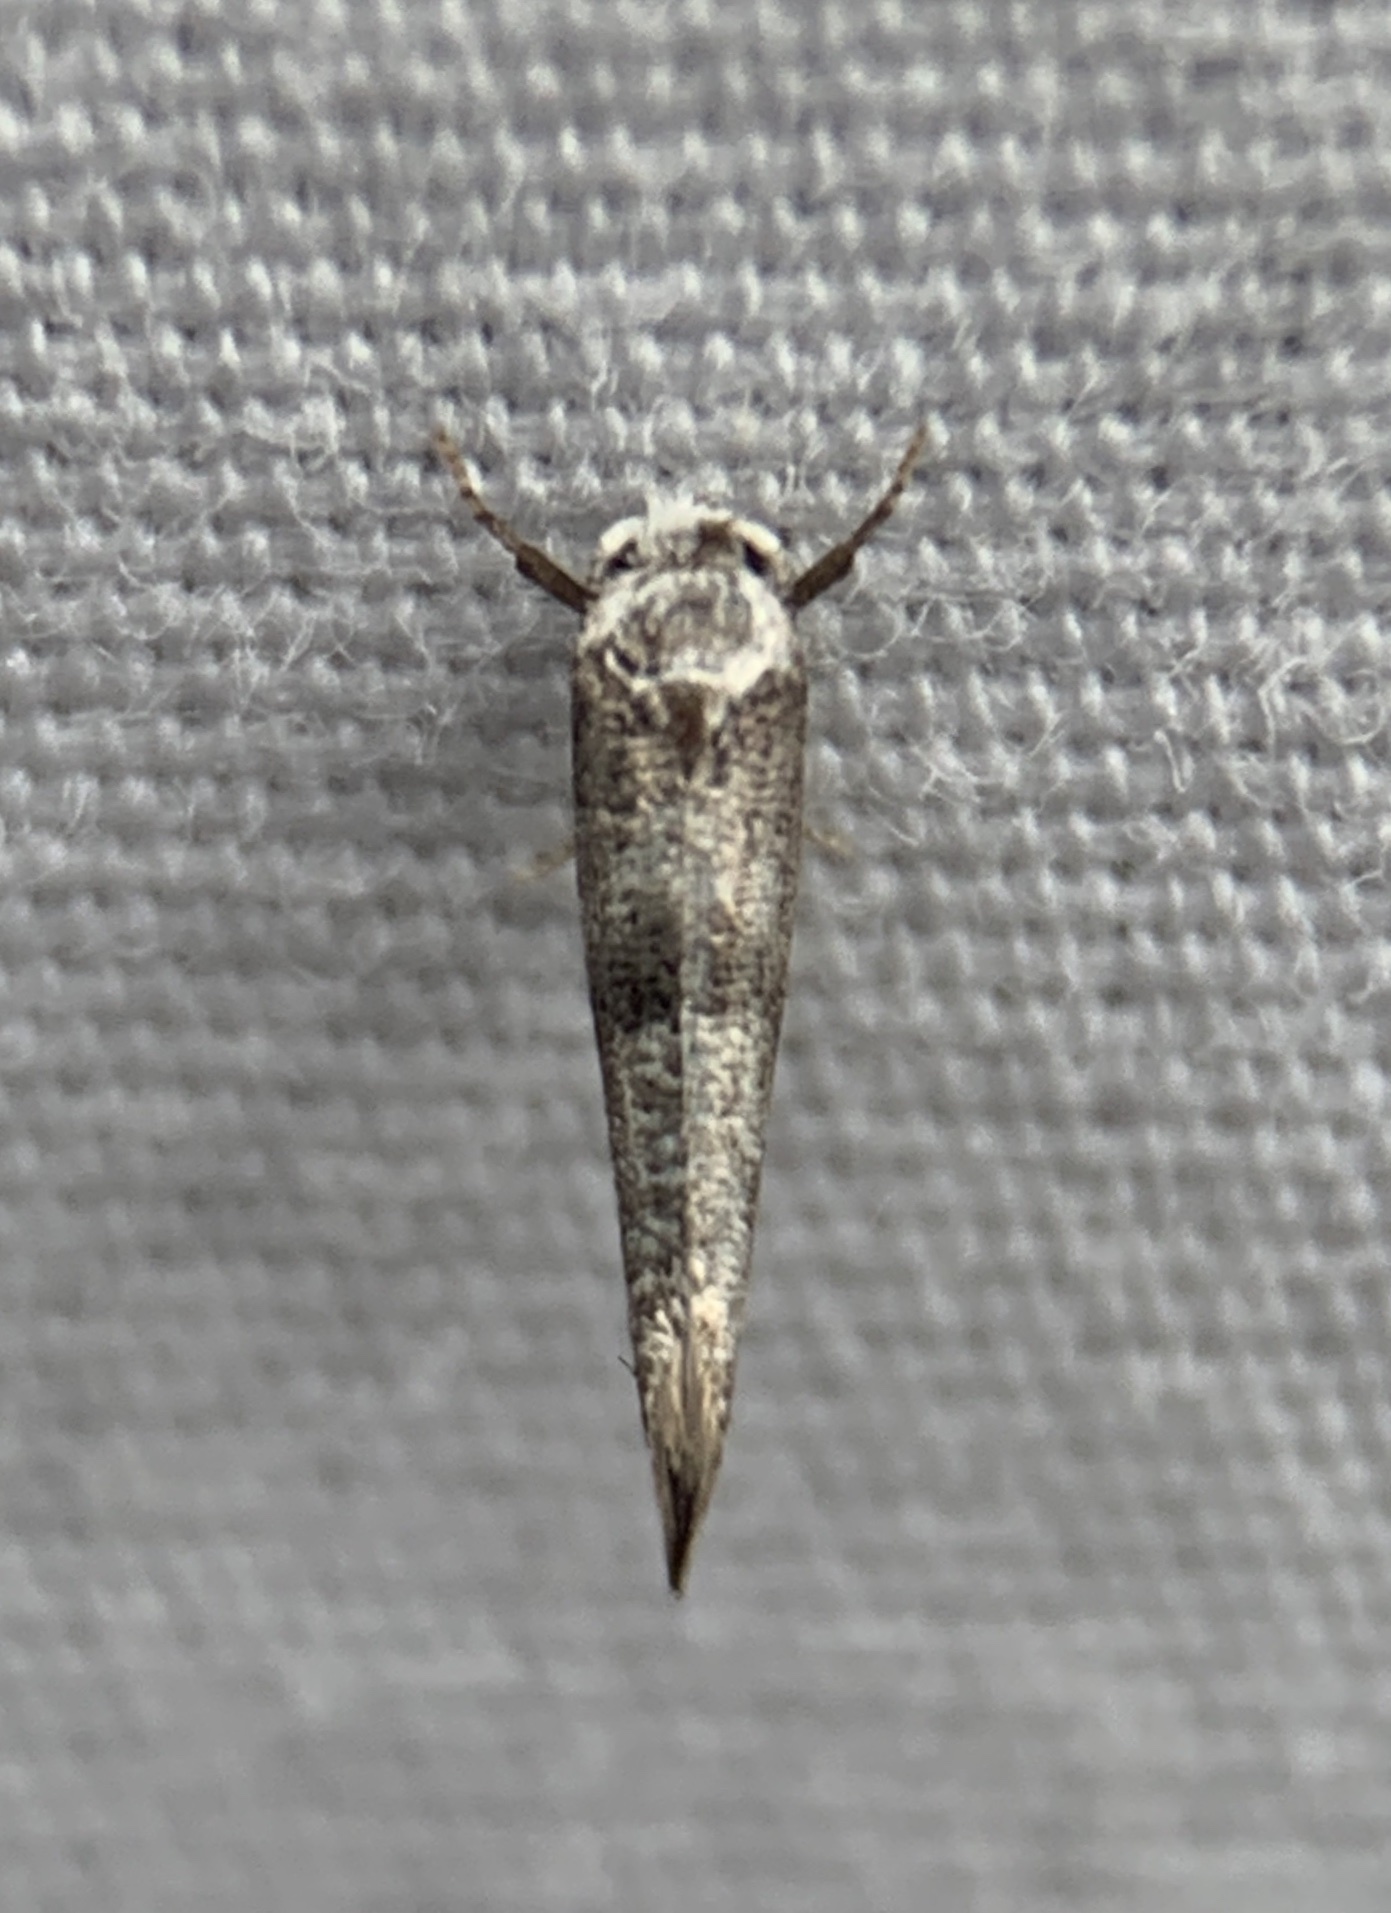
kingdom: Animalia
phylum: Arthropoda
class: Insecta
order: Lepidoptera
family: Yponomeutidae
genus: Swammerdamia
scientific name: Swammerdamia
